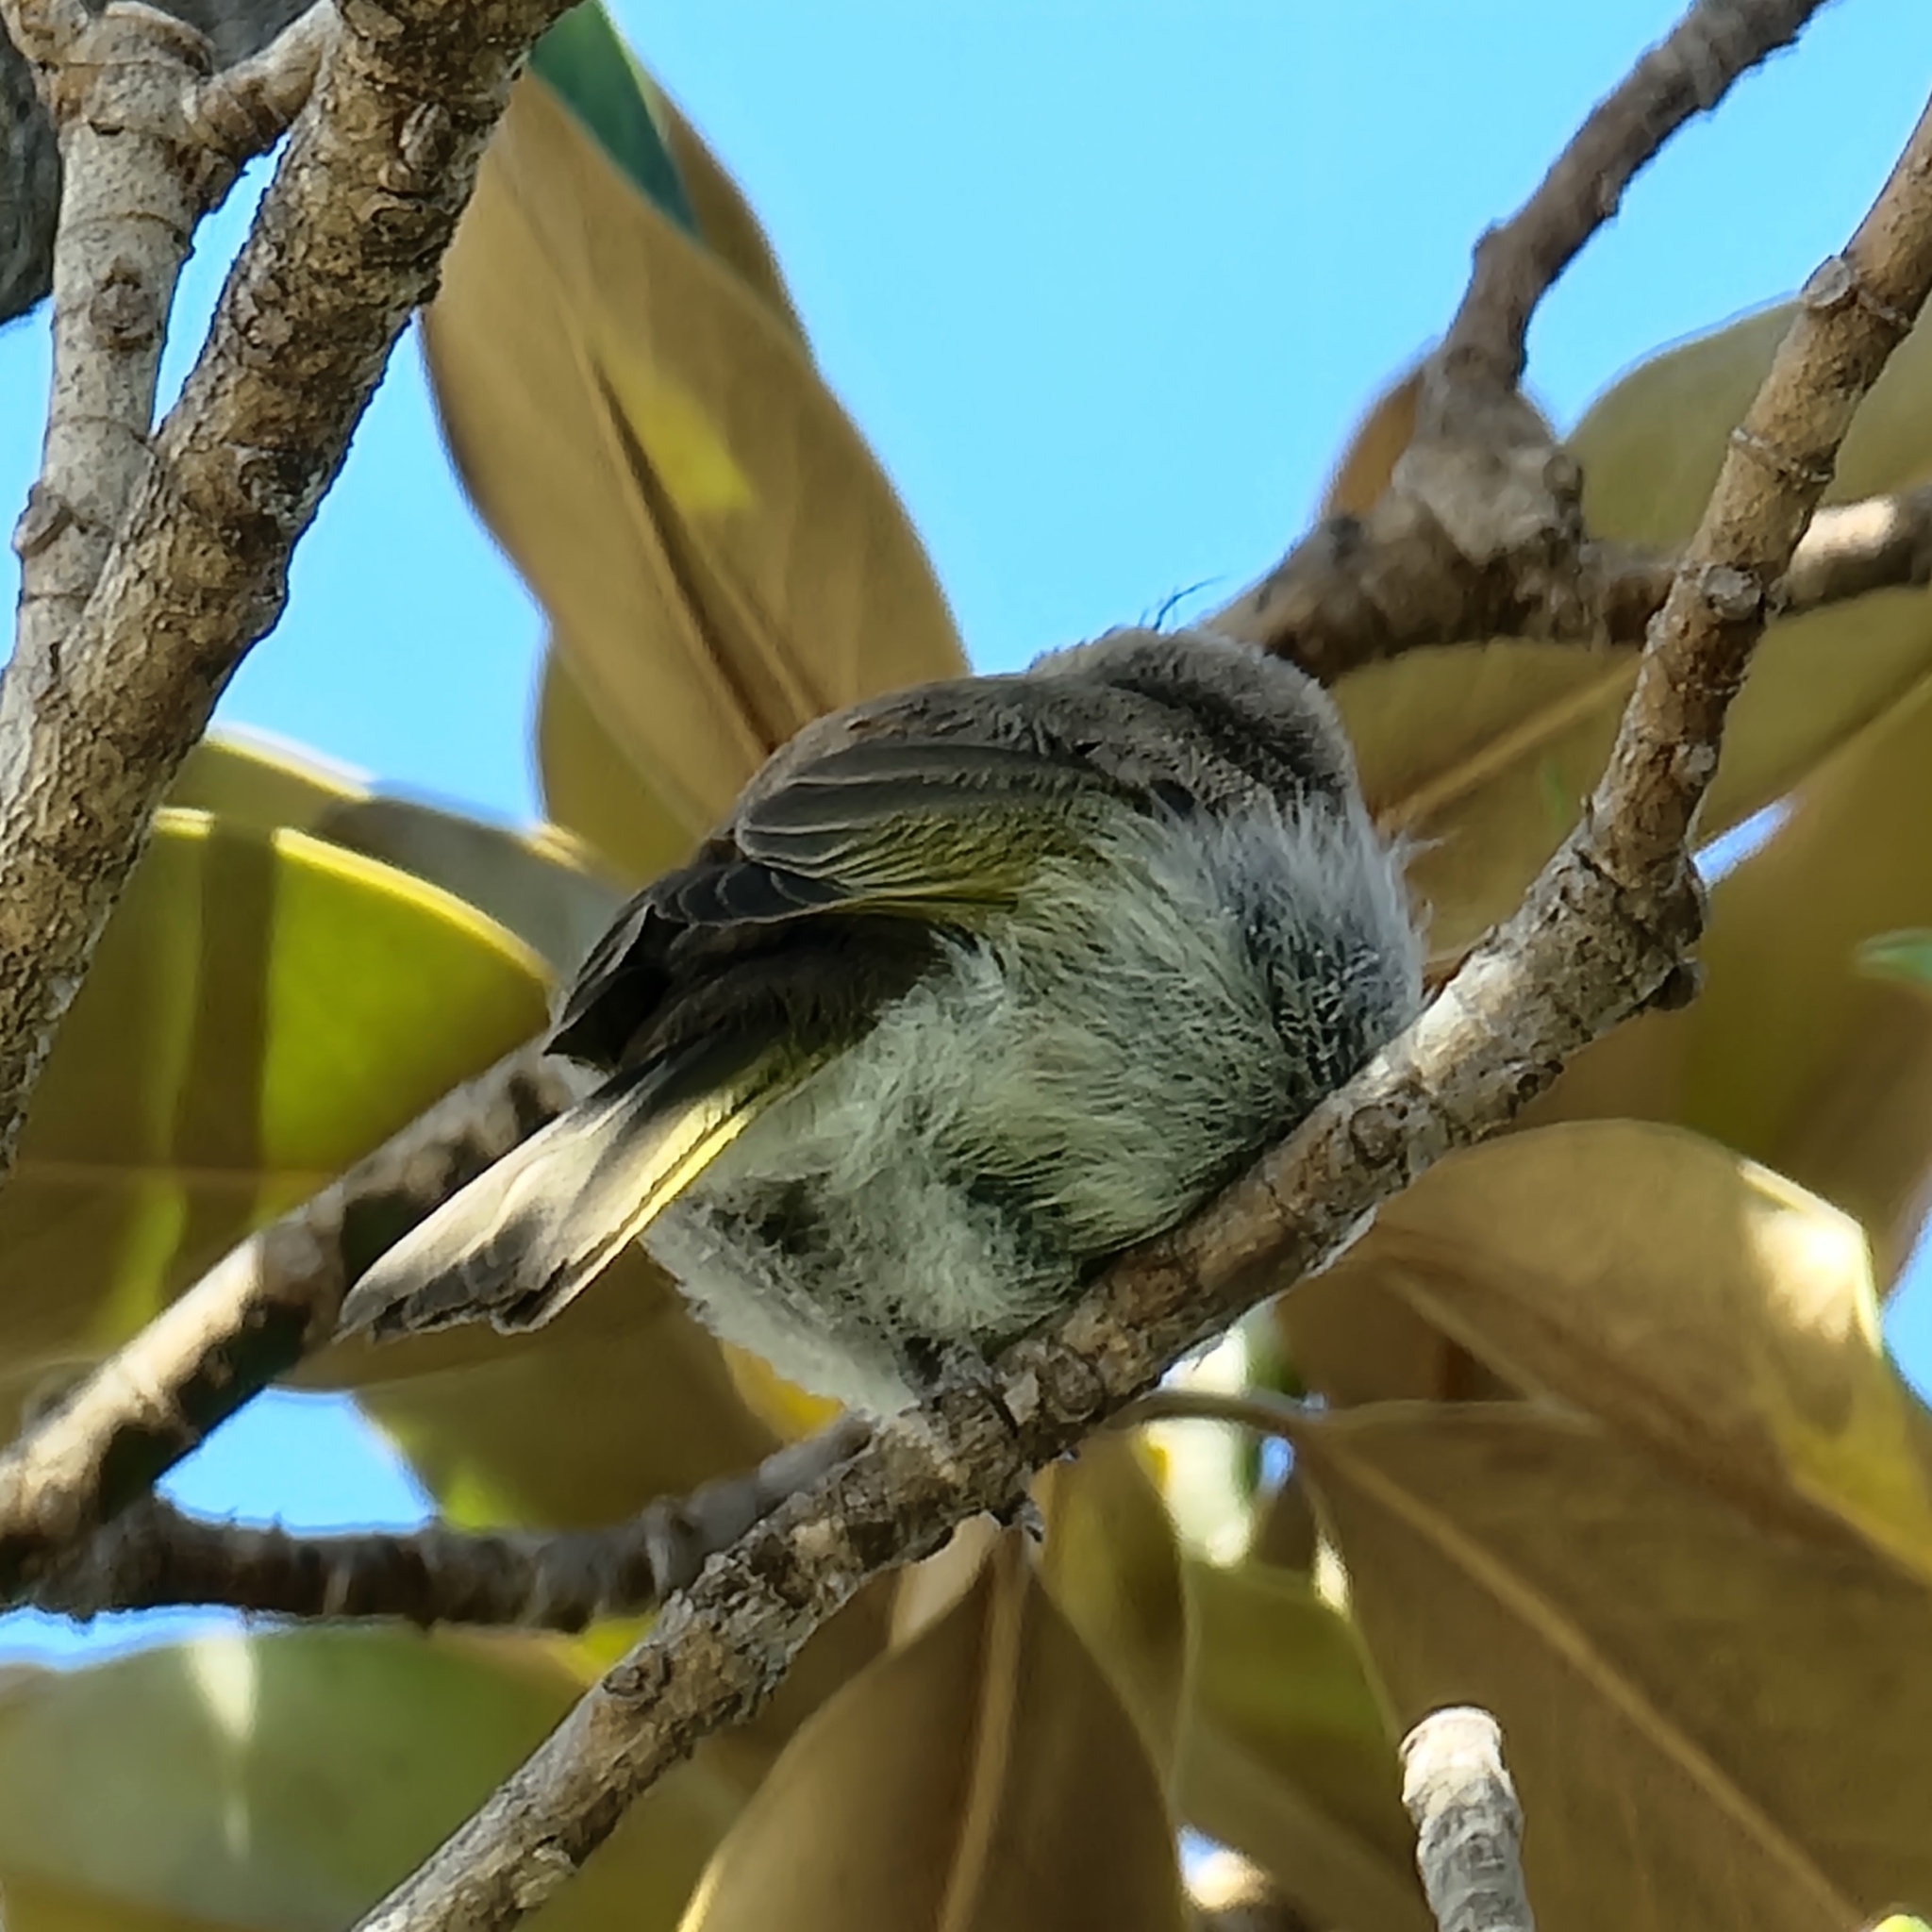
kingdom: Animalia
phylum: Chordata
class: Aves
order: Passeriformes
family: Meliphagidae
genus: Lichmera
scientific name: Lichmera indistincta
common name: Brown honeyeater
